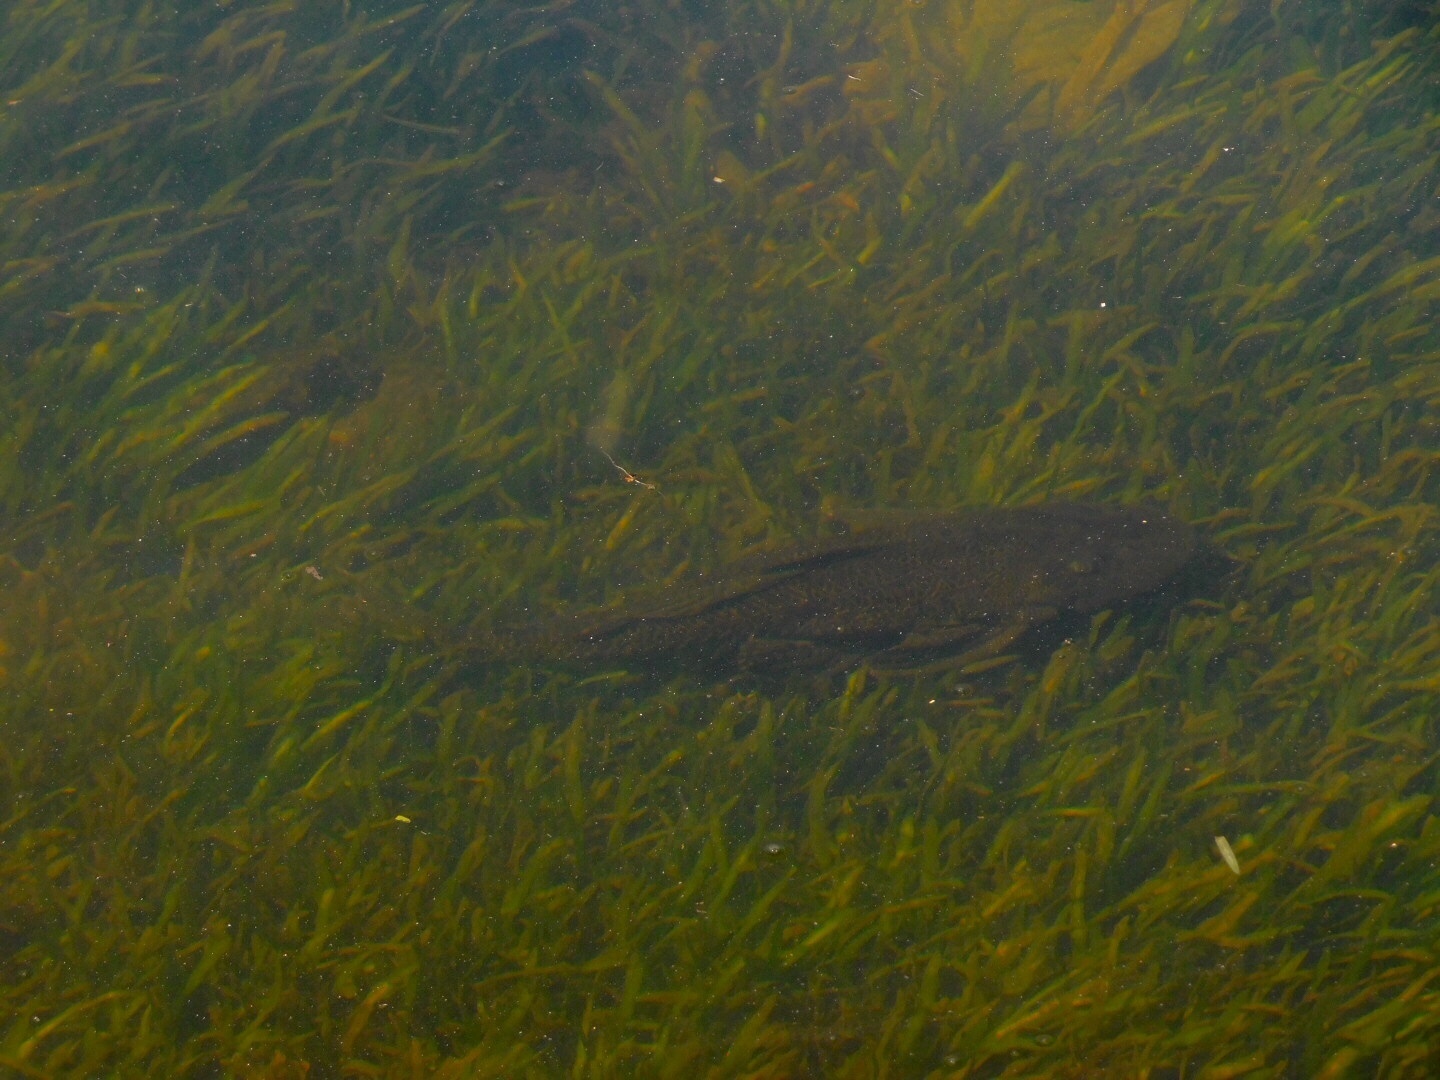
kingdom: Animalia
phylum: Chordata
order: Siluriformes
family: Loricariidae
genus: Pterygoplichthys
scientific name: Pterygoplichthys
